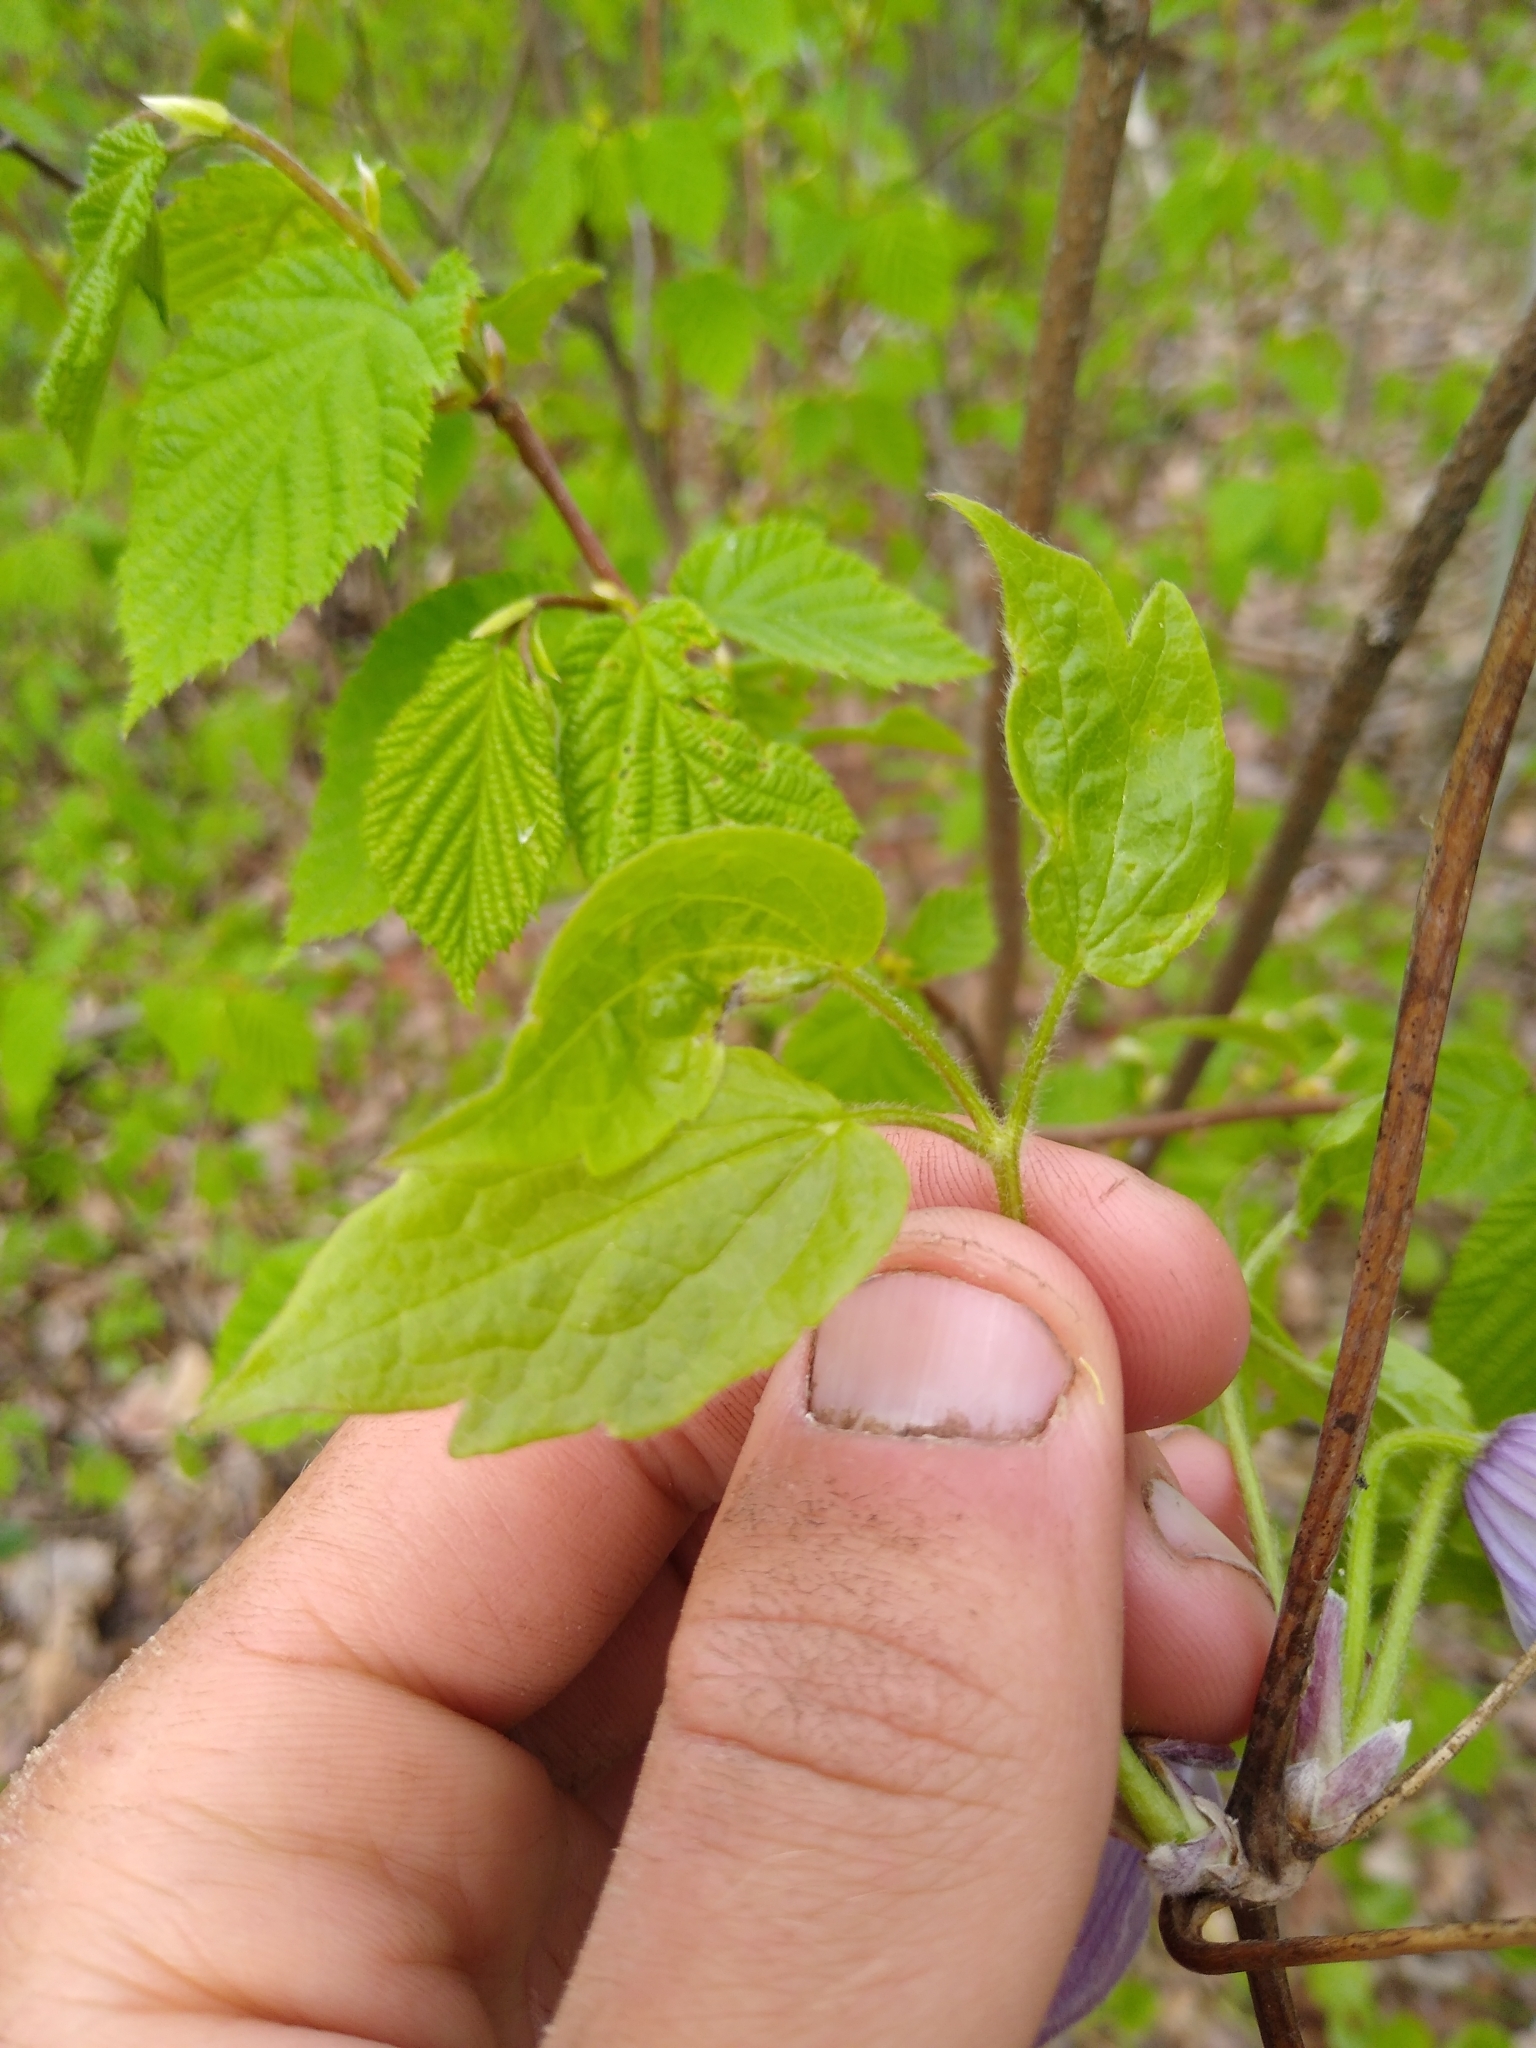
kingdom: Plantae
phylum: Tracheophyta
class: Magnoliopsida
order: Ranunculales
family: Ranunculaceae
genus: Clematis
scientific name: Clematis occidentalis
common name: Purple clematis
